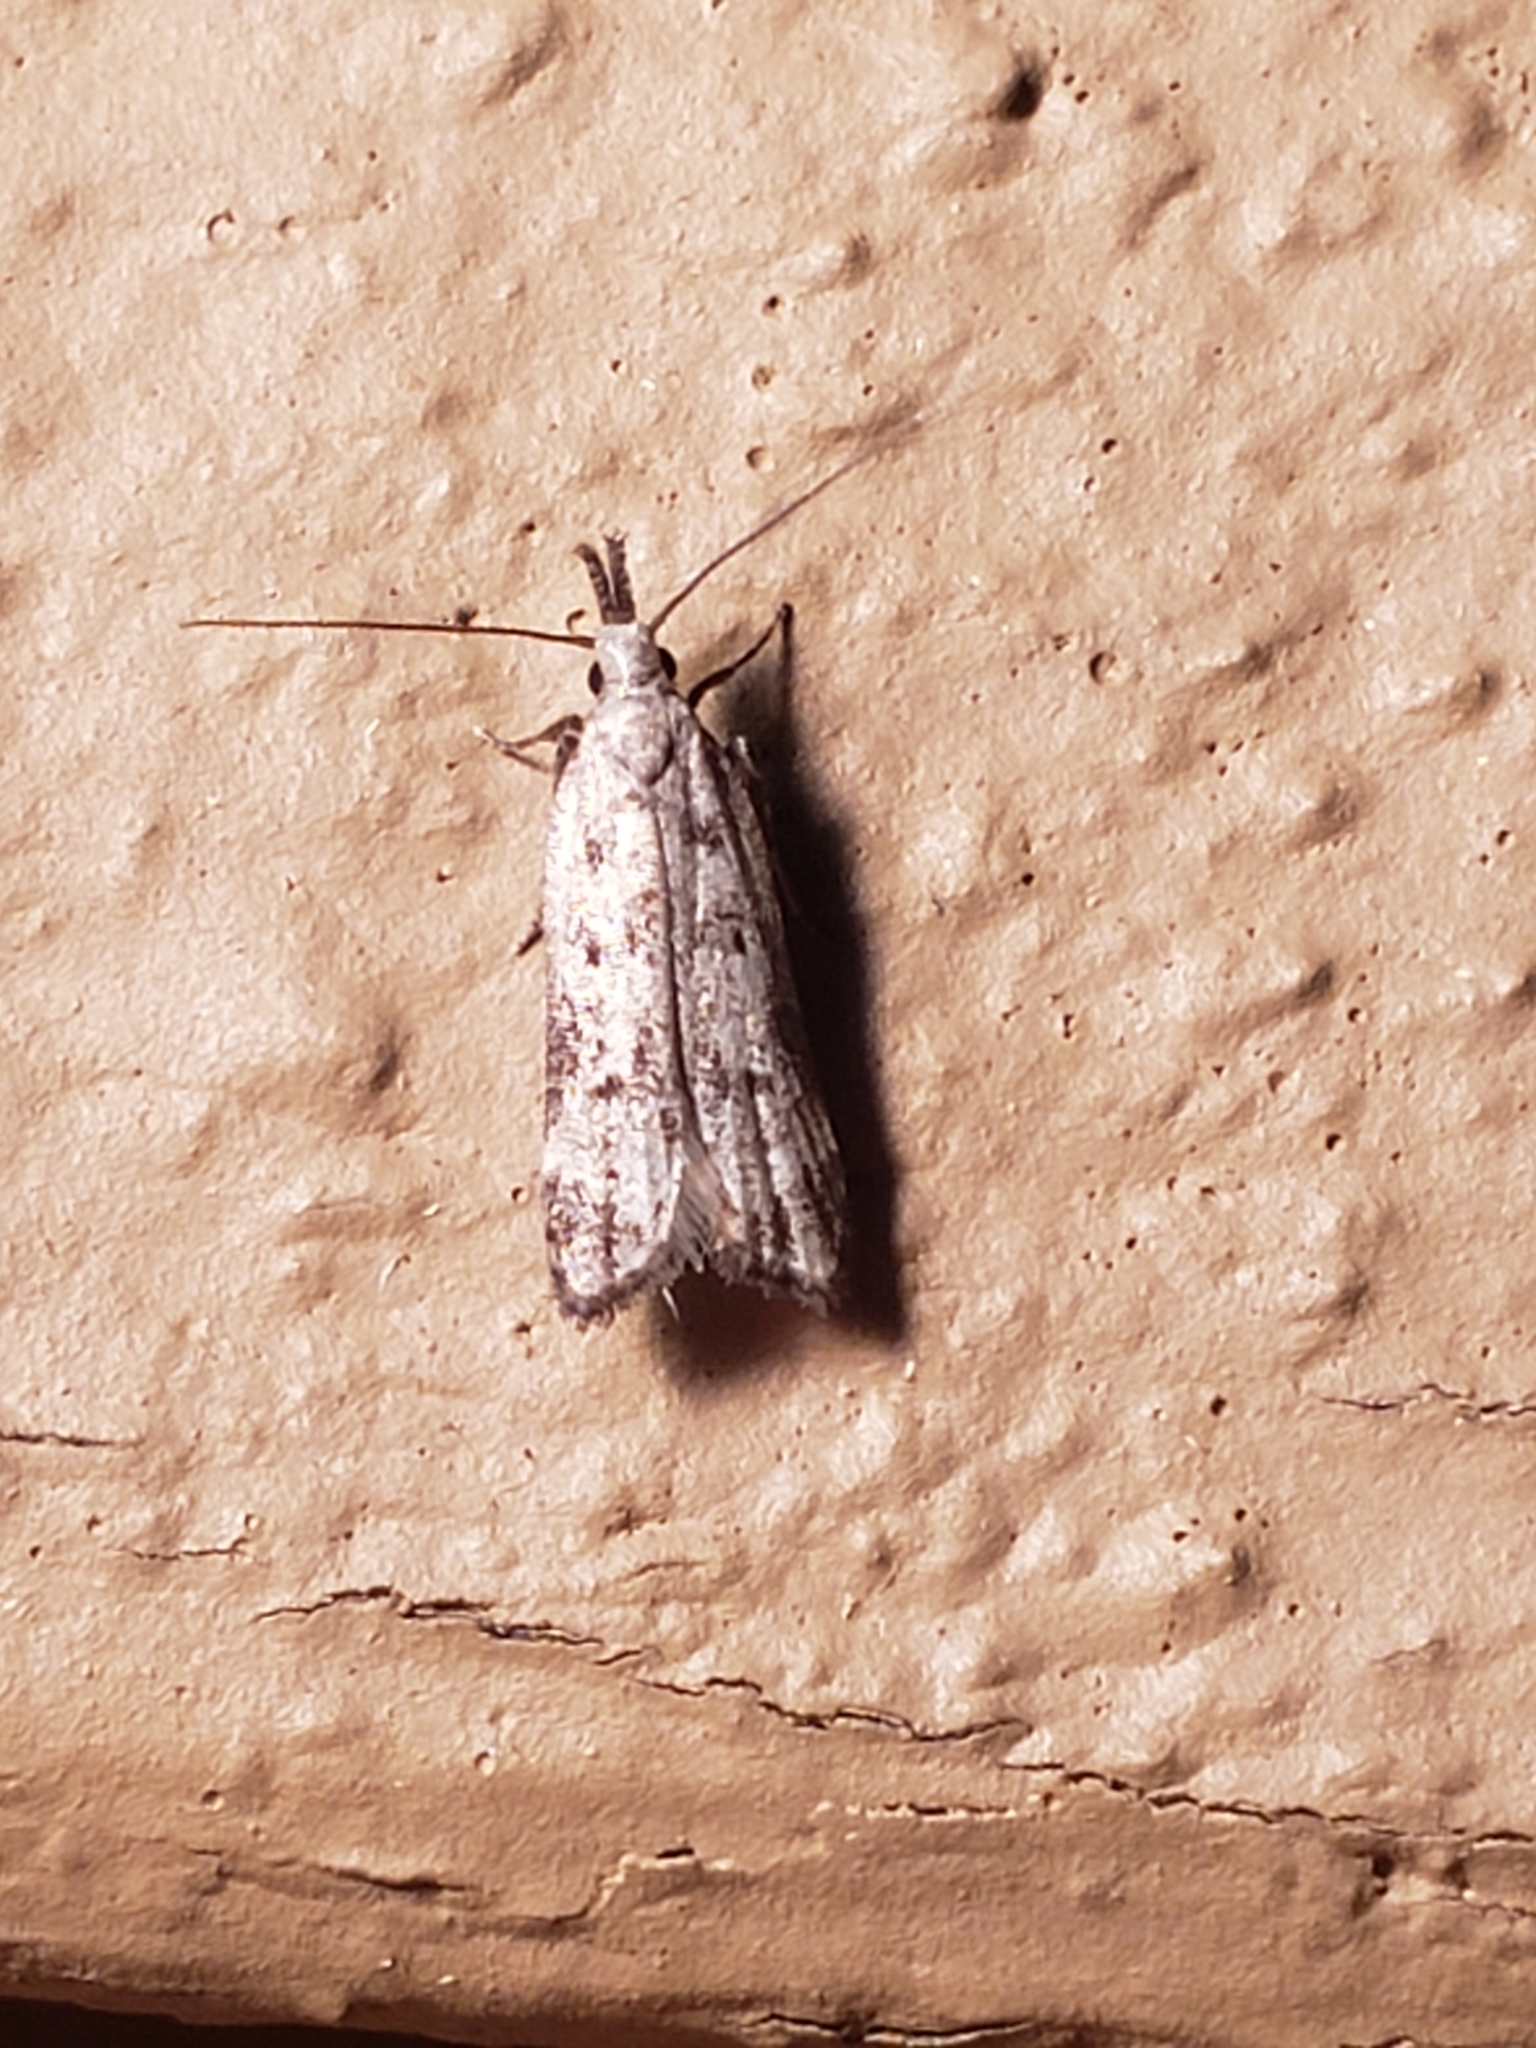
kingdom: Animalia
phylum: Arthropoda
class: Insecta
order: Lepidoptera
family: Gelechiidae
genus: Dichomeris
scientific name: Dichomeris kimballi
